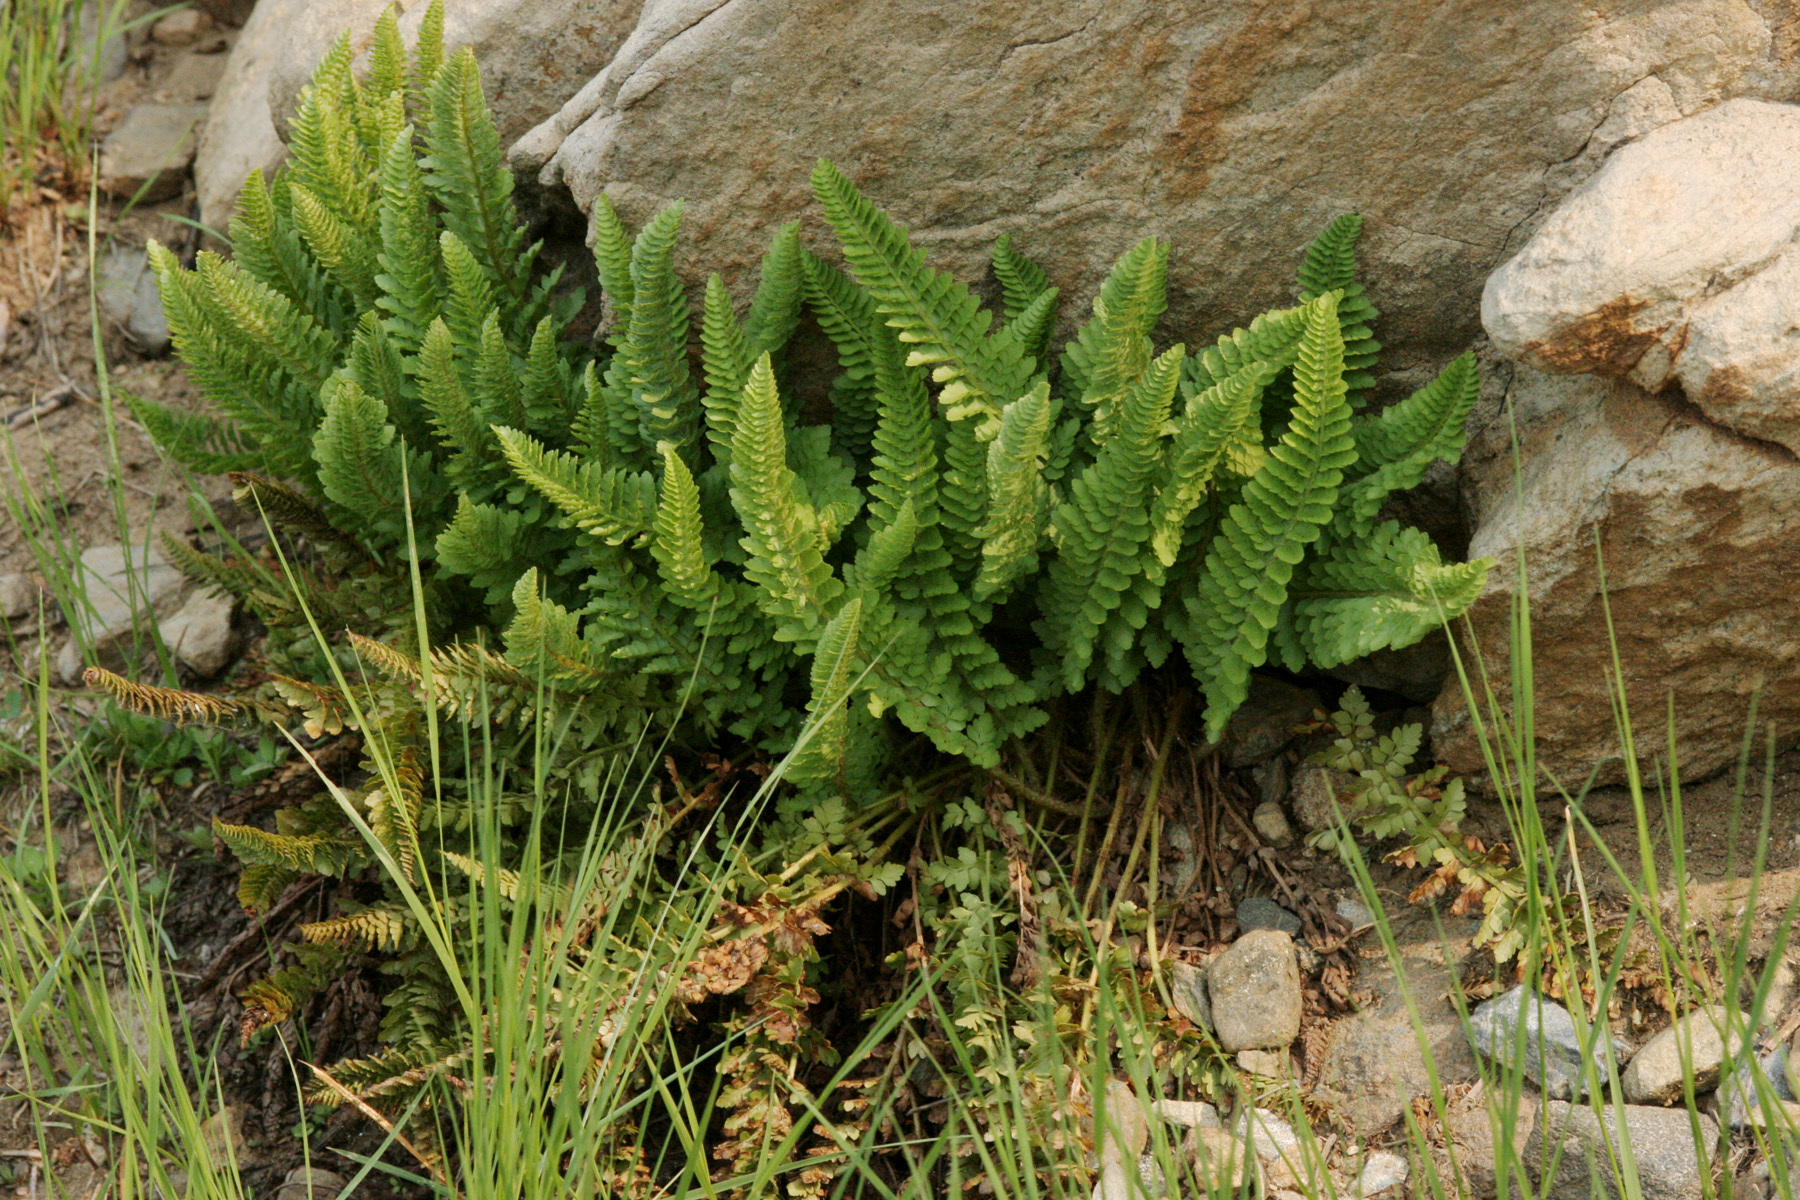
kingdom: Plantae
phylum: Tracheophyta
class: Polypodiopsida
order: Polypodiales
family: Dryopteridaceae
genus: Polystichum
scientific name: Polystichum lemmonii
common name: Lemmon's holly fern
